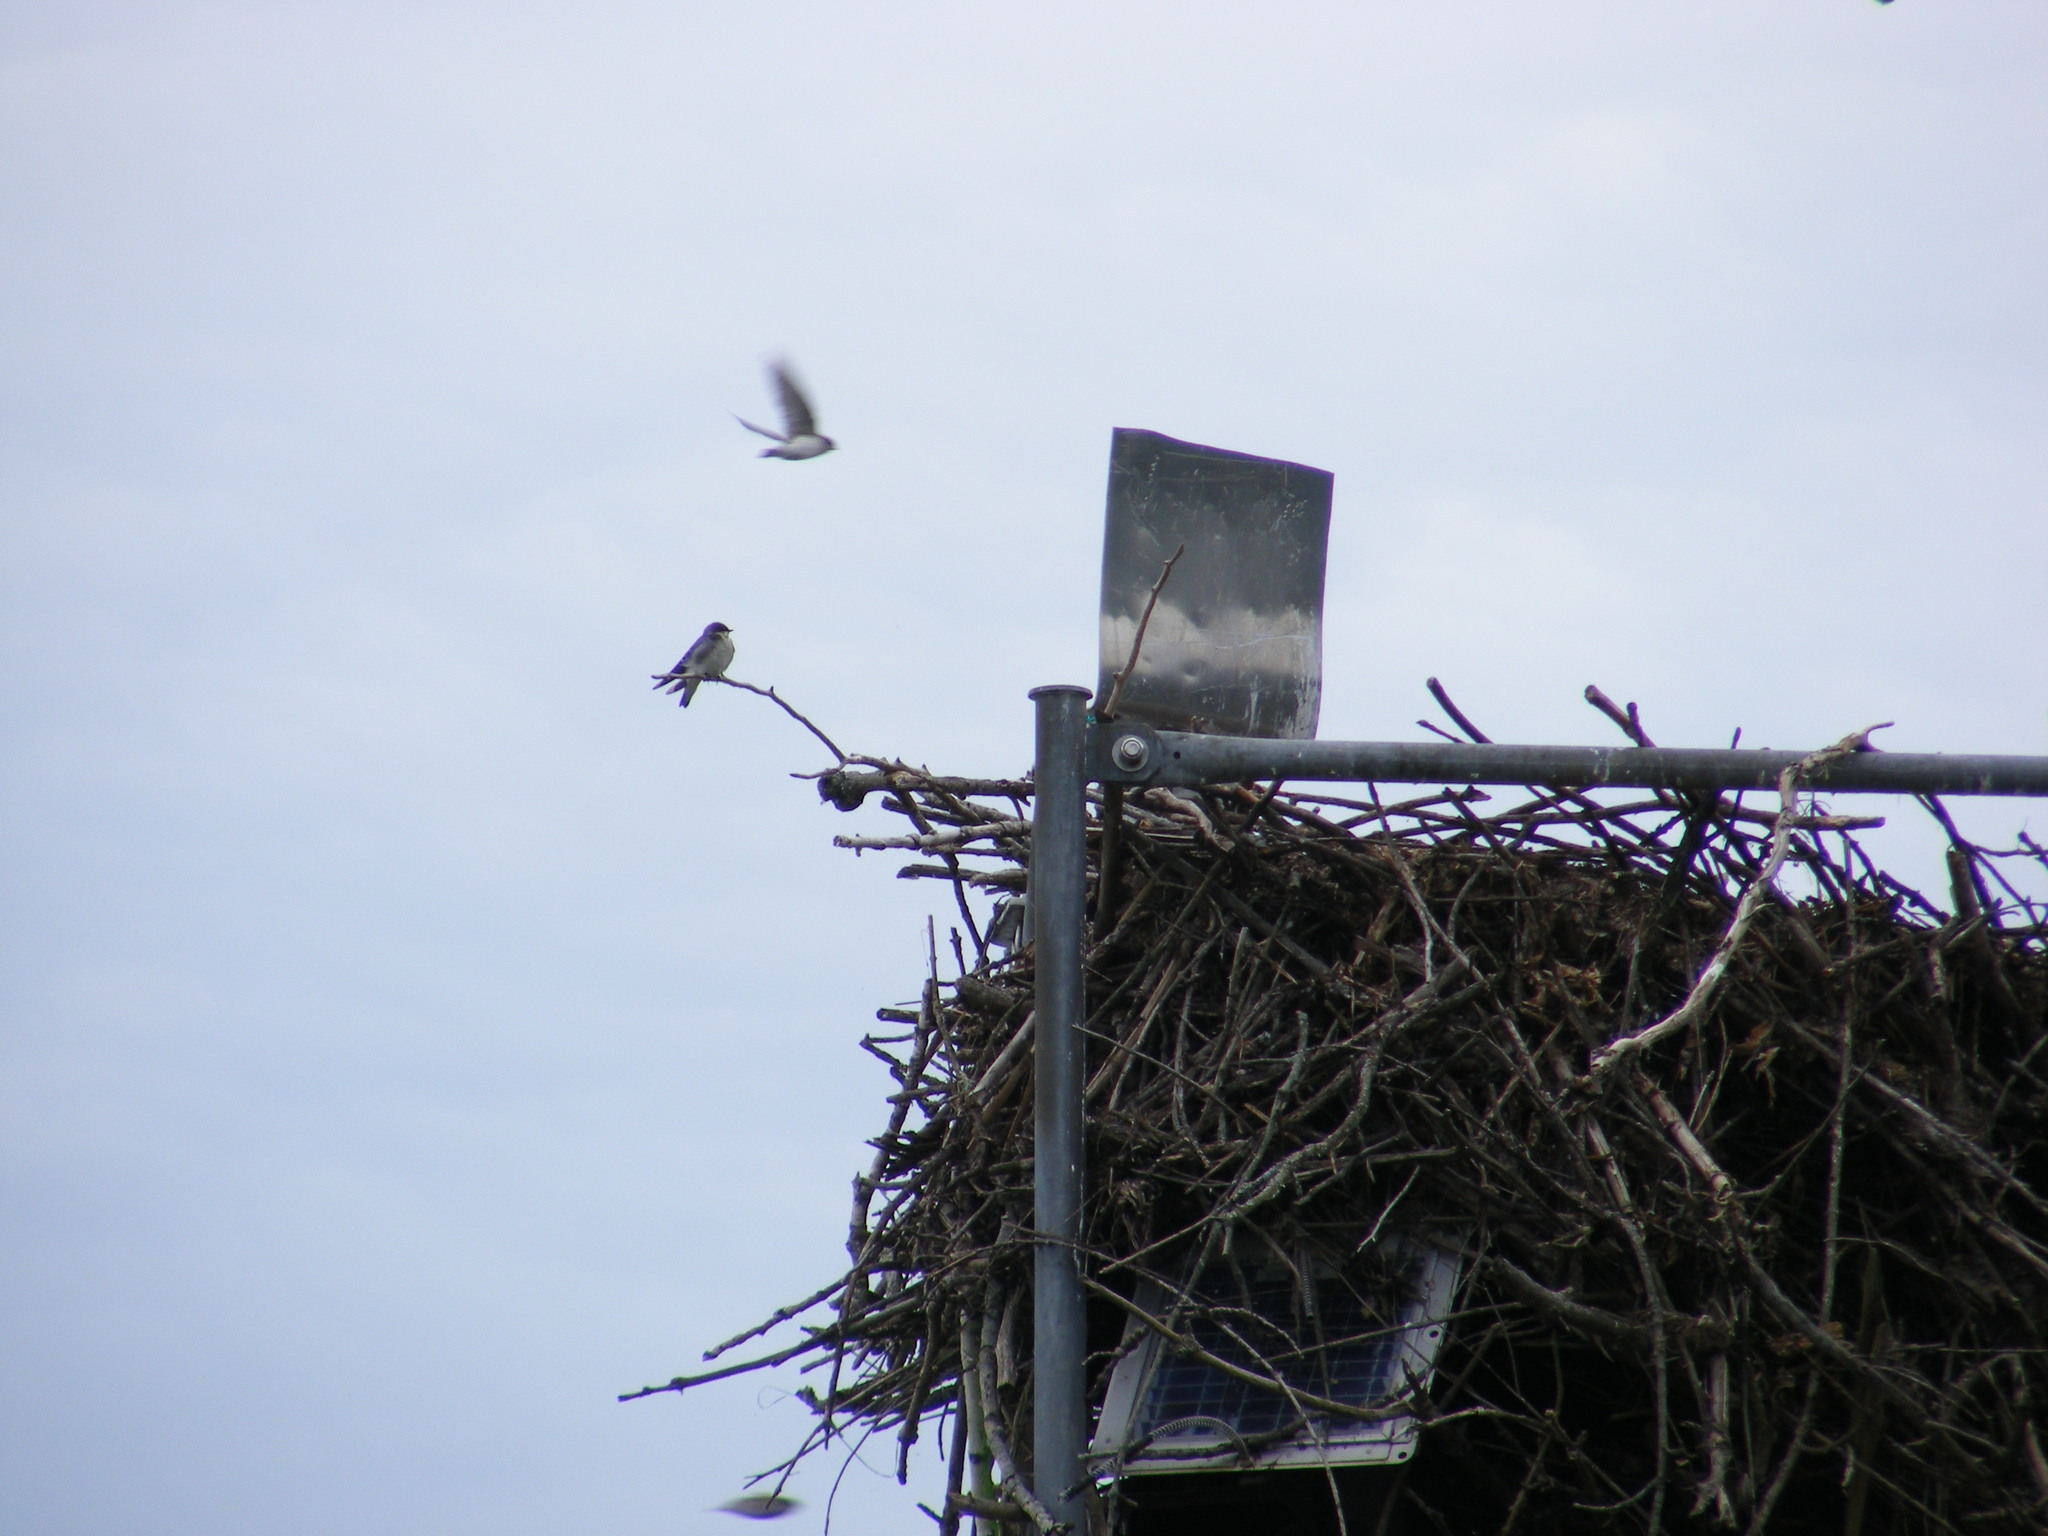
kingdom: Animalia
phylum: Chordata
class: Aves
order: Passeriformes
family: Hirundinidae
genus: Tachycineta
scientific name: Tachycineta bicolor
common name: Tree swallow
